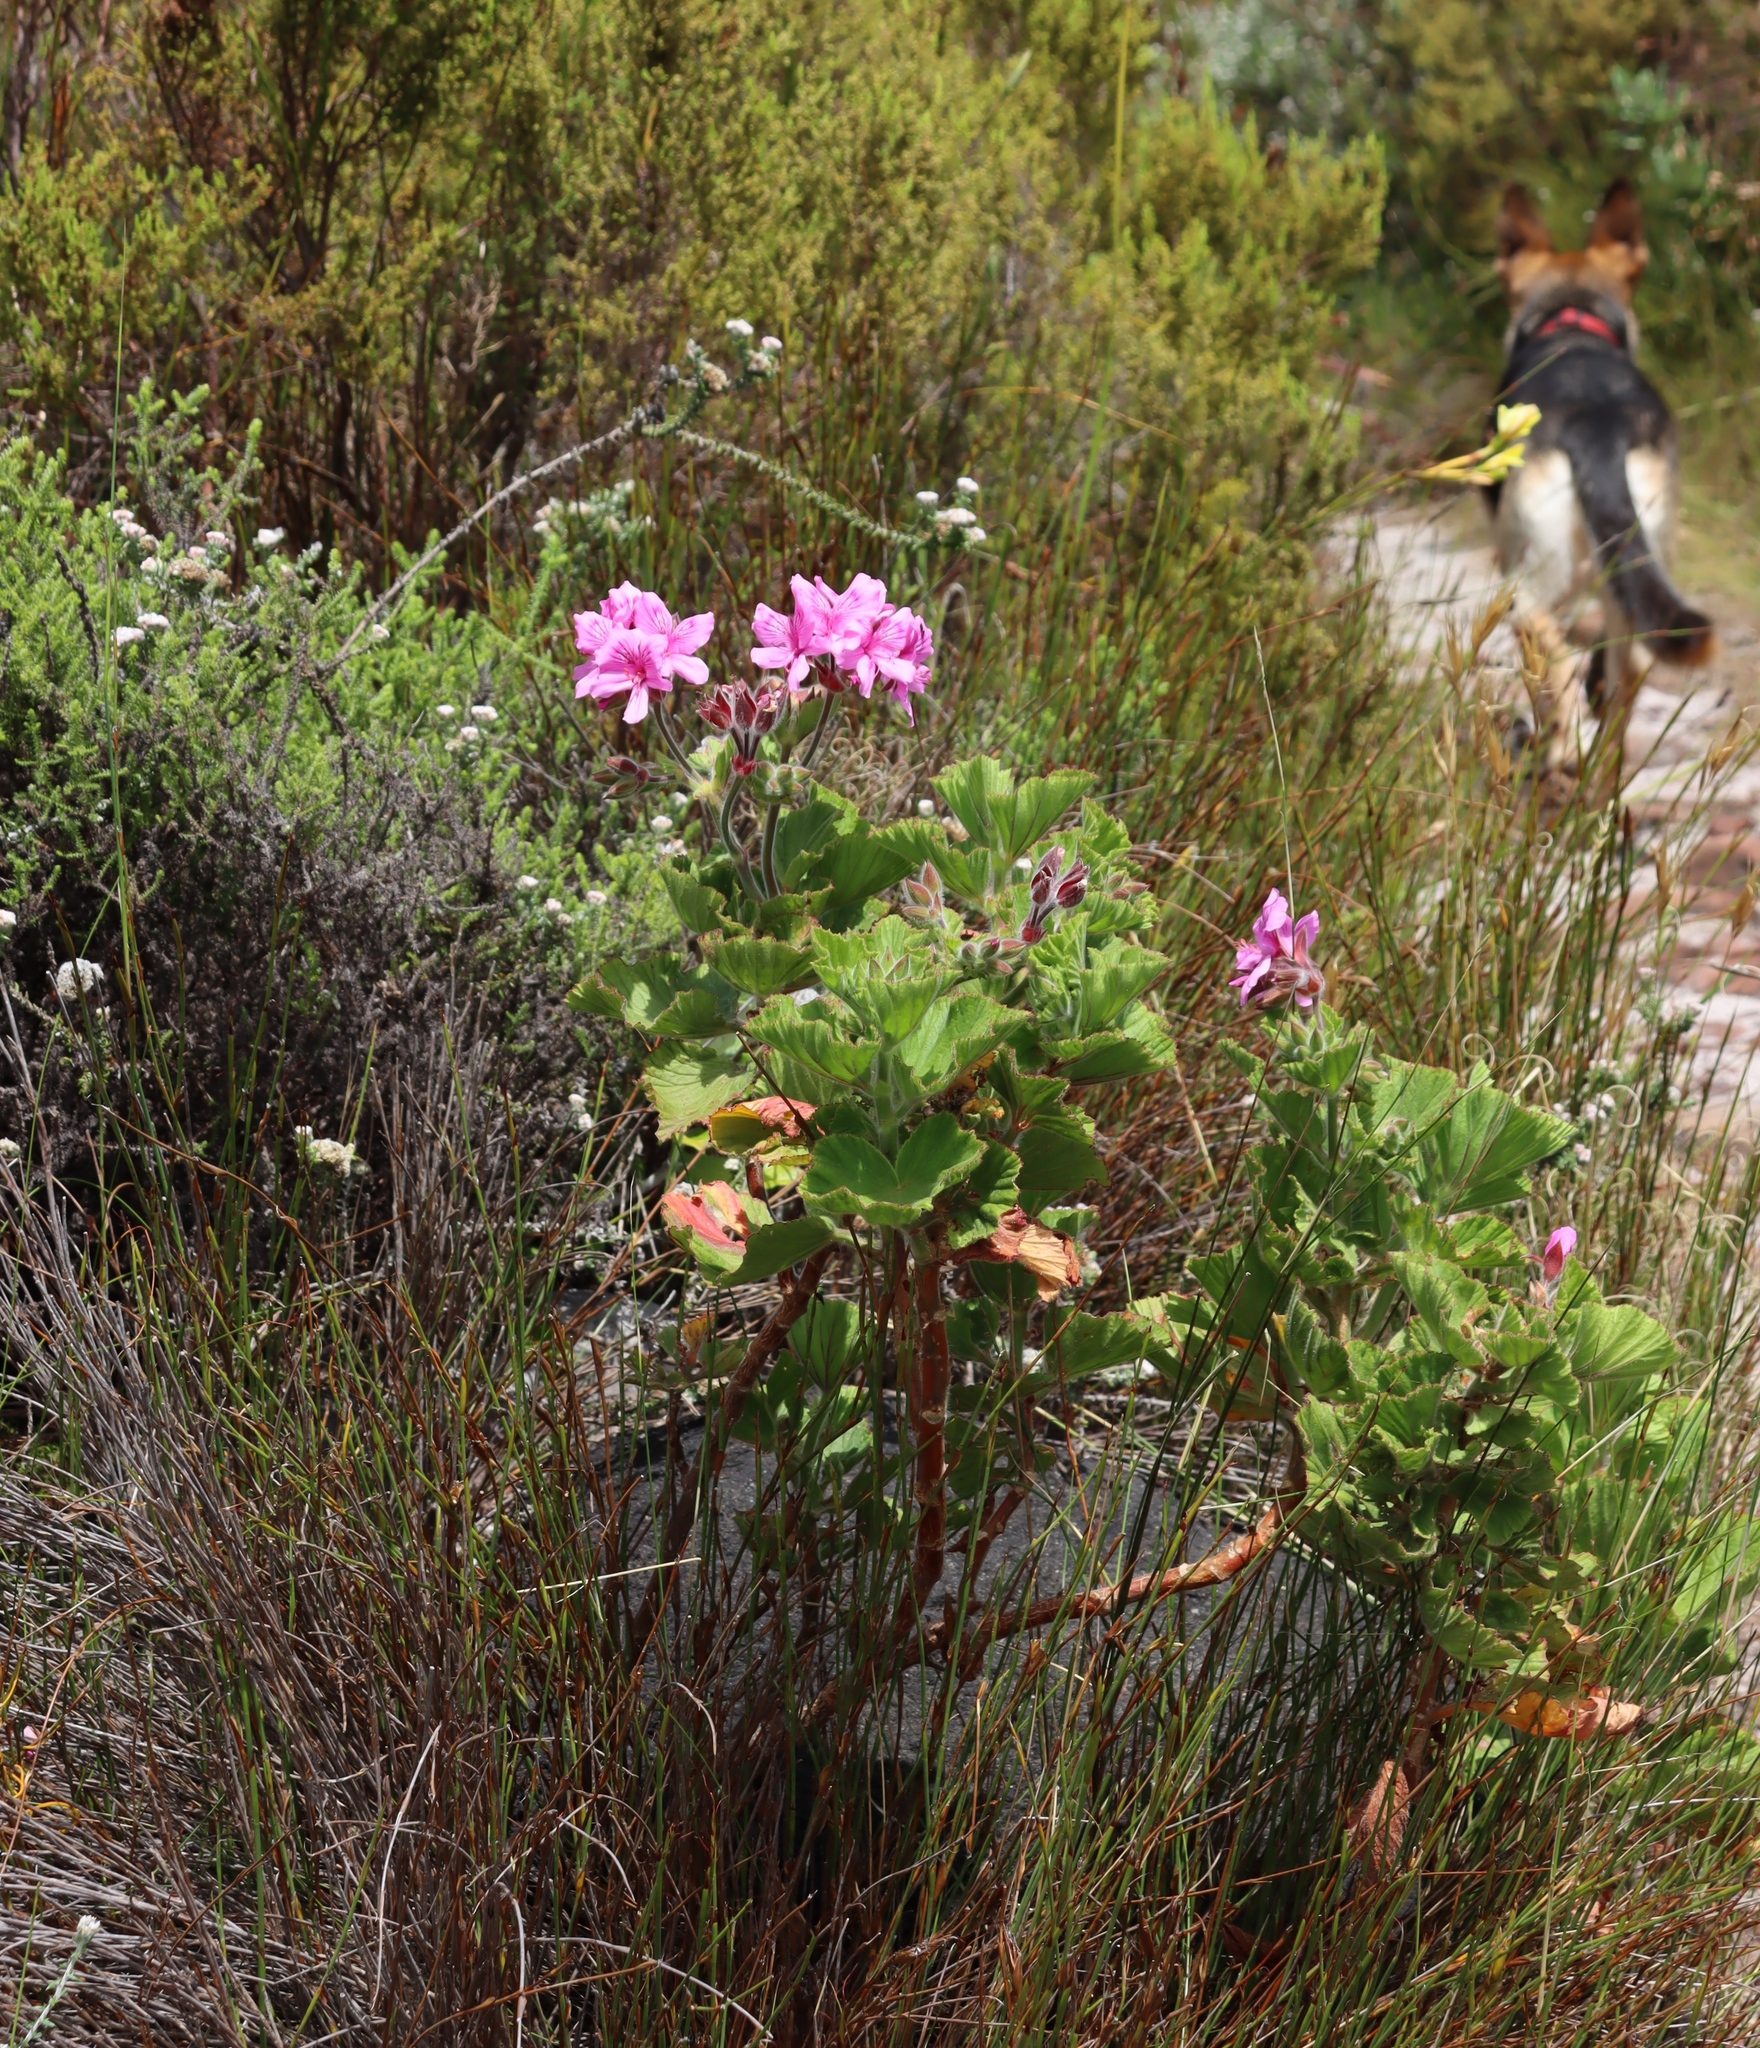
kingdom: Plantae
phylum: Tracheophyta
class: Magnoliopsida
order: Geraniales
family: Geraniaceae
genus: Pelargonium
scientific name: Pelargonium cucullatum
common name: Tree pelargonium
